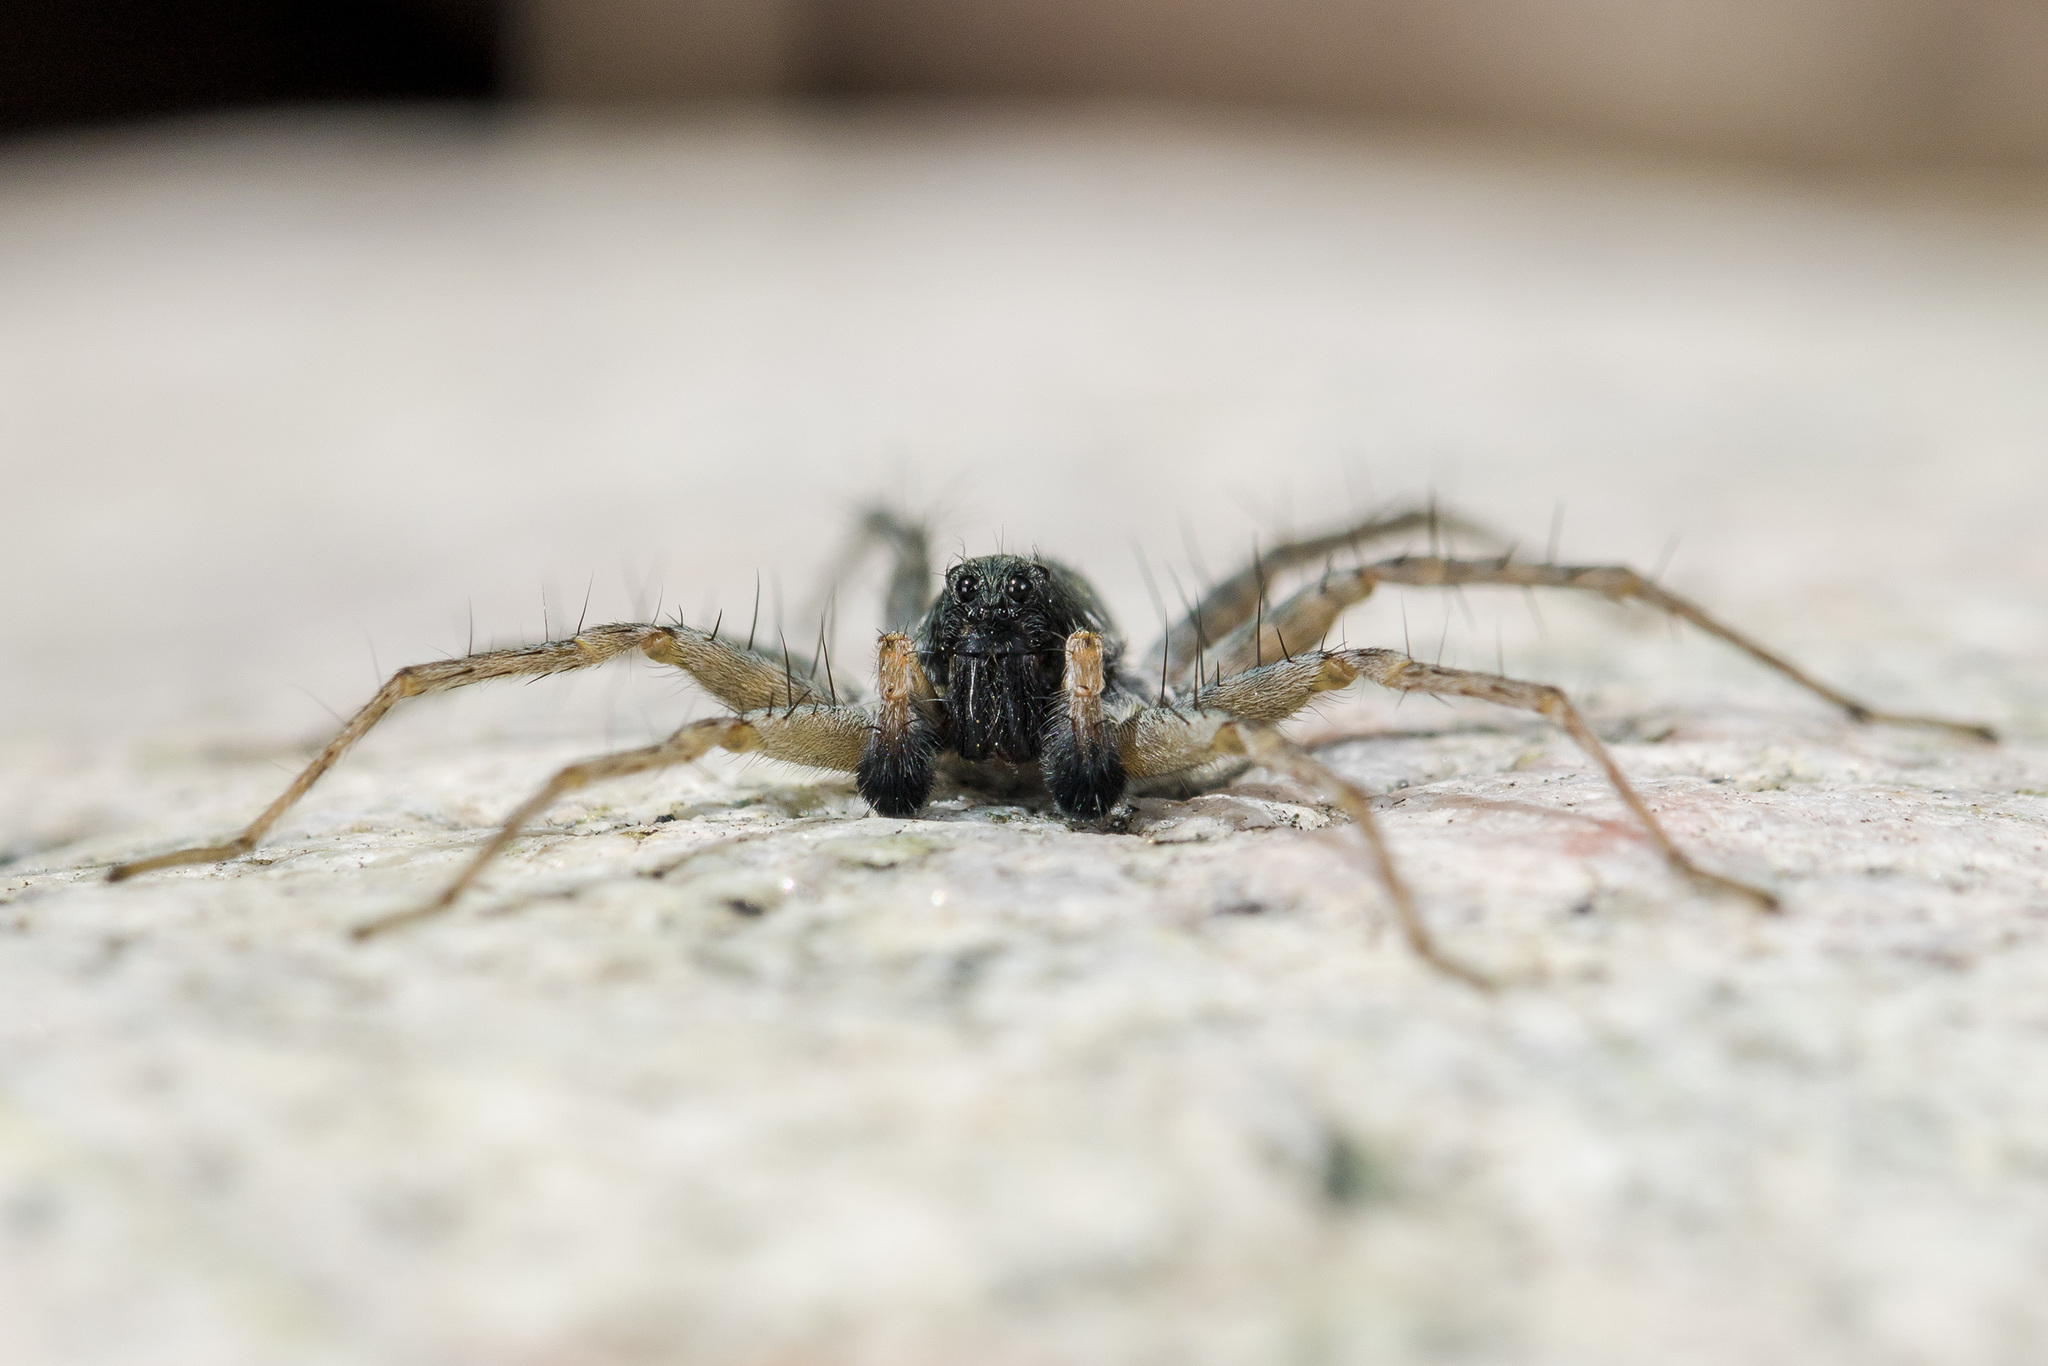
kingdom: Animalia
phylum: Arthropoda
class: Arachnida
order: Araneae
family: Lycosidae
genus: Pardosa
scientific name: Pardosa falcata
